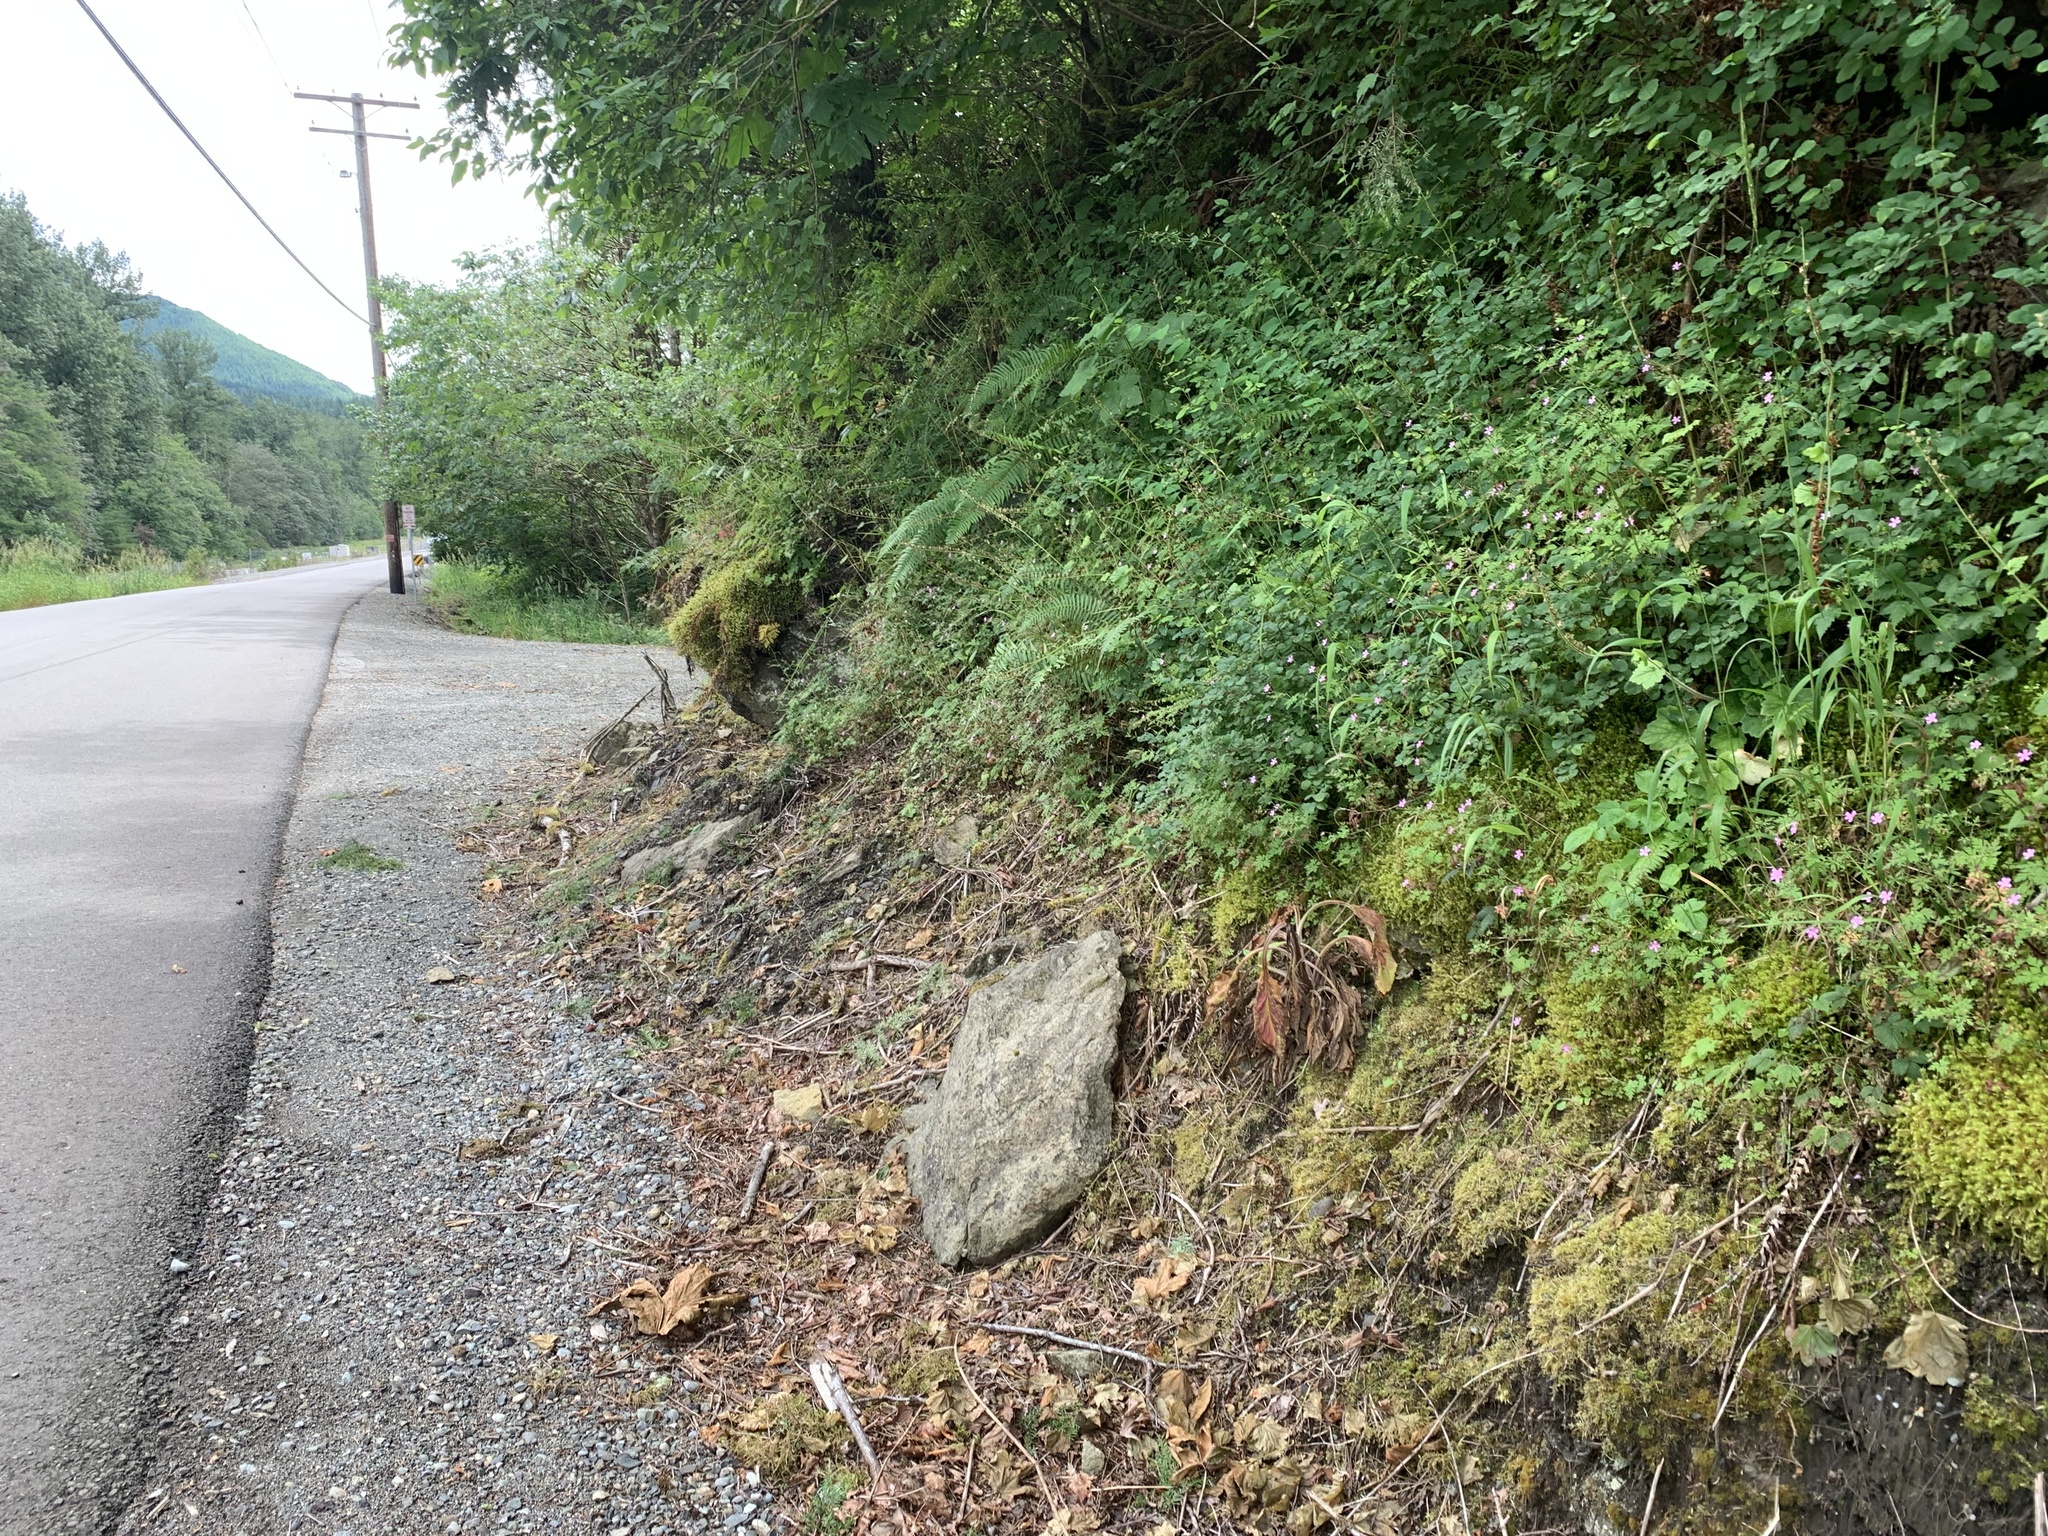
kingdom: Plantae
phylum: Tracheophyta
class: Magnoliopsida
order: Dipsacales
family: Caprifoliaceae
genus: Valeriana
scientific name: Valeriana scouleri
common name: Scouler's valerian
